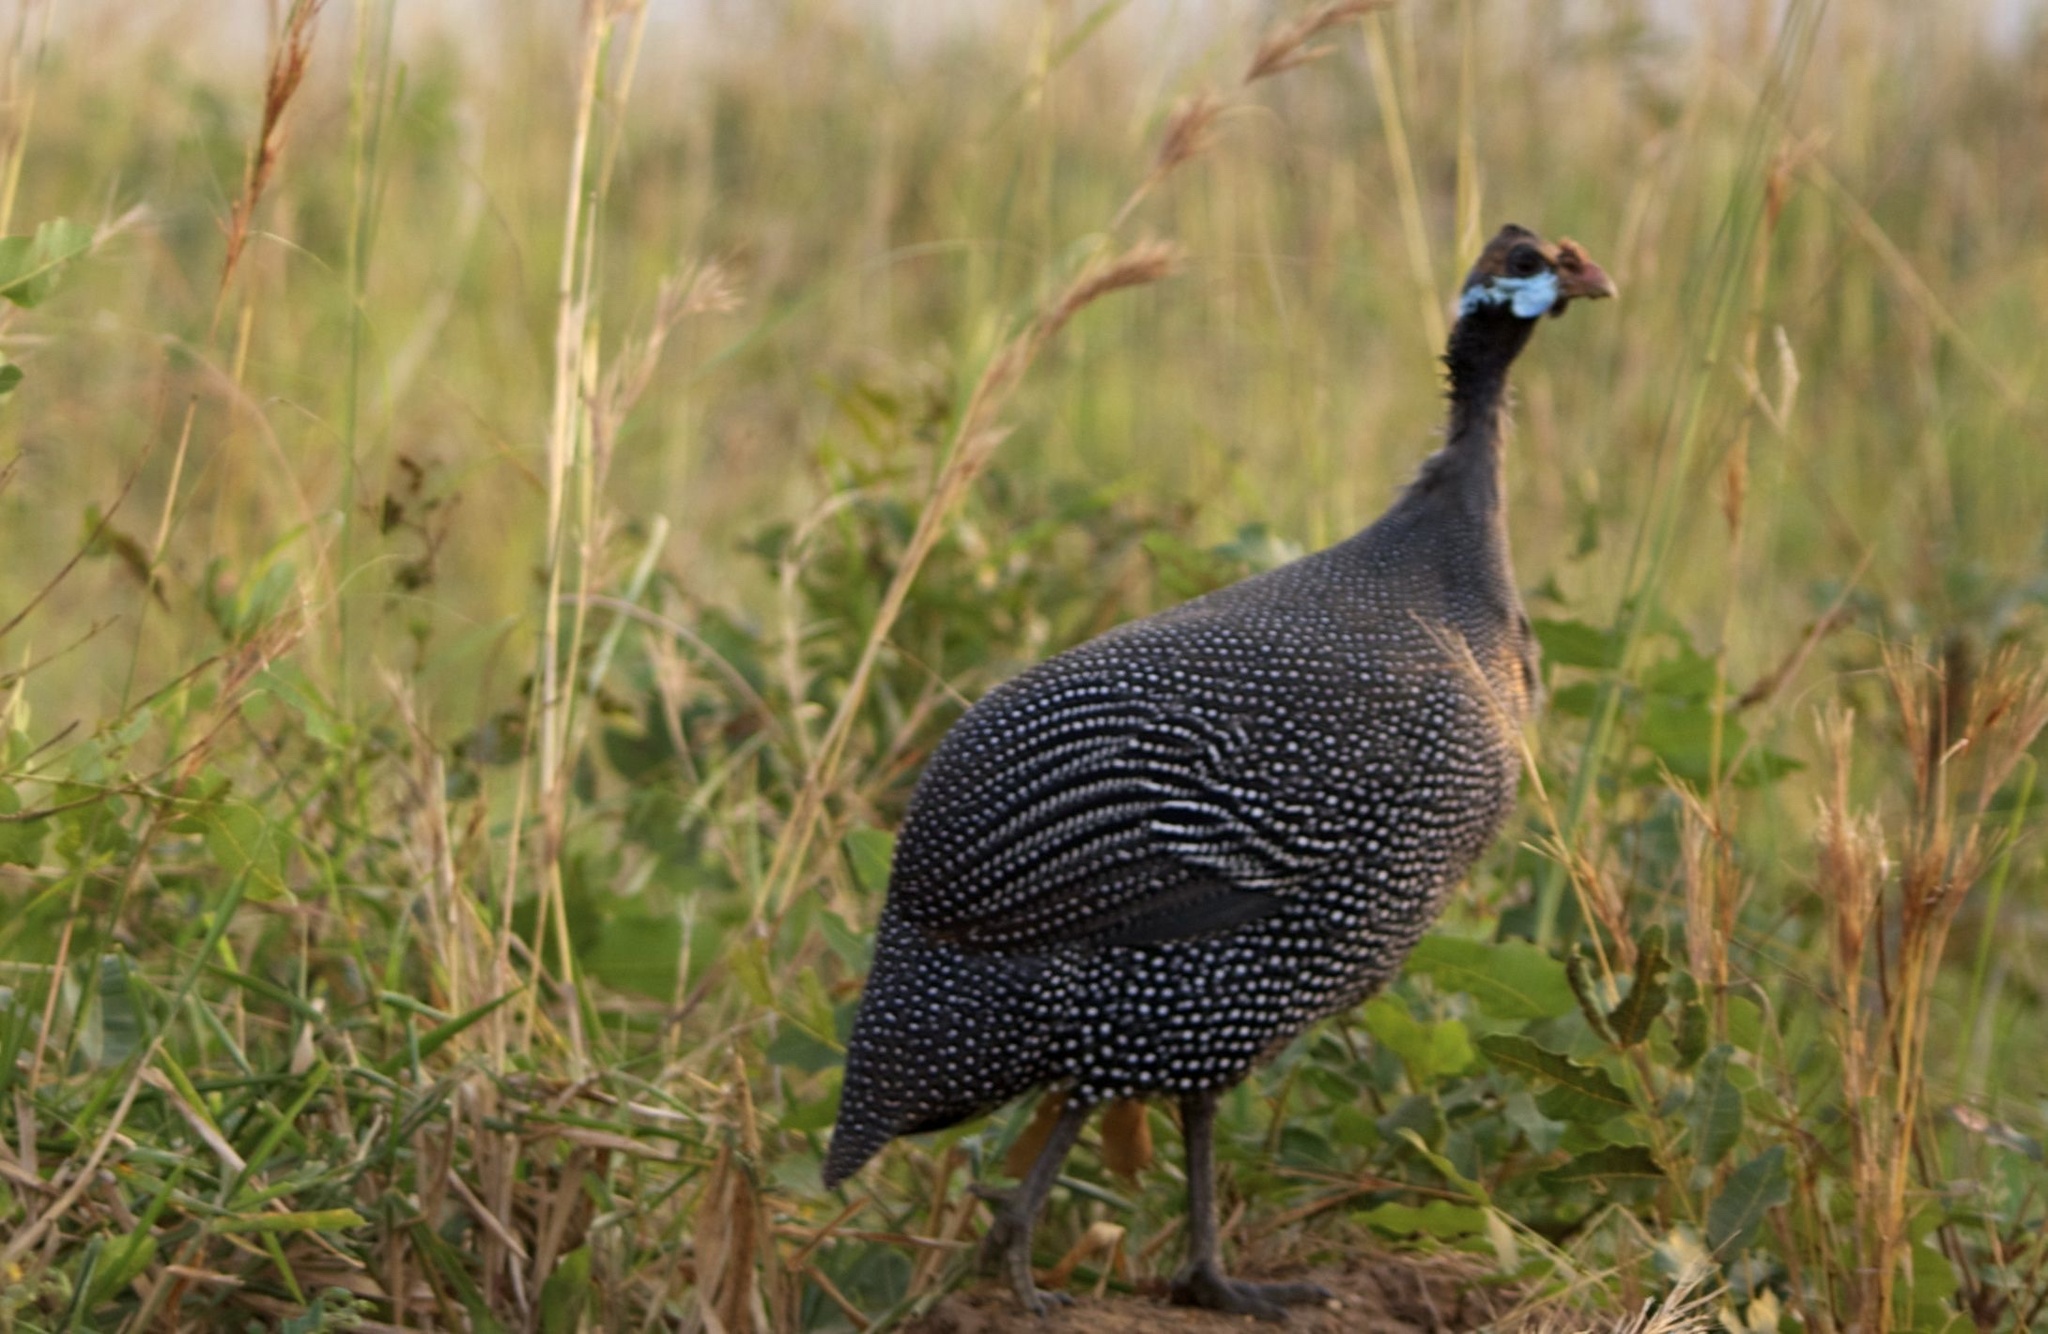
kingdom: Animalia
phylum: Chordata
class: Aves
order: Galliformes
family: Numididae
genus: Numida
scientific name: Numida meleagris
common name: Helmeted guineafowl
